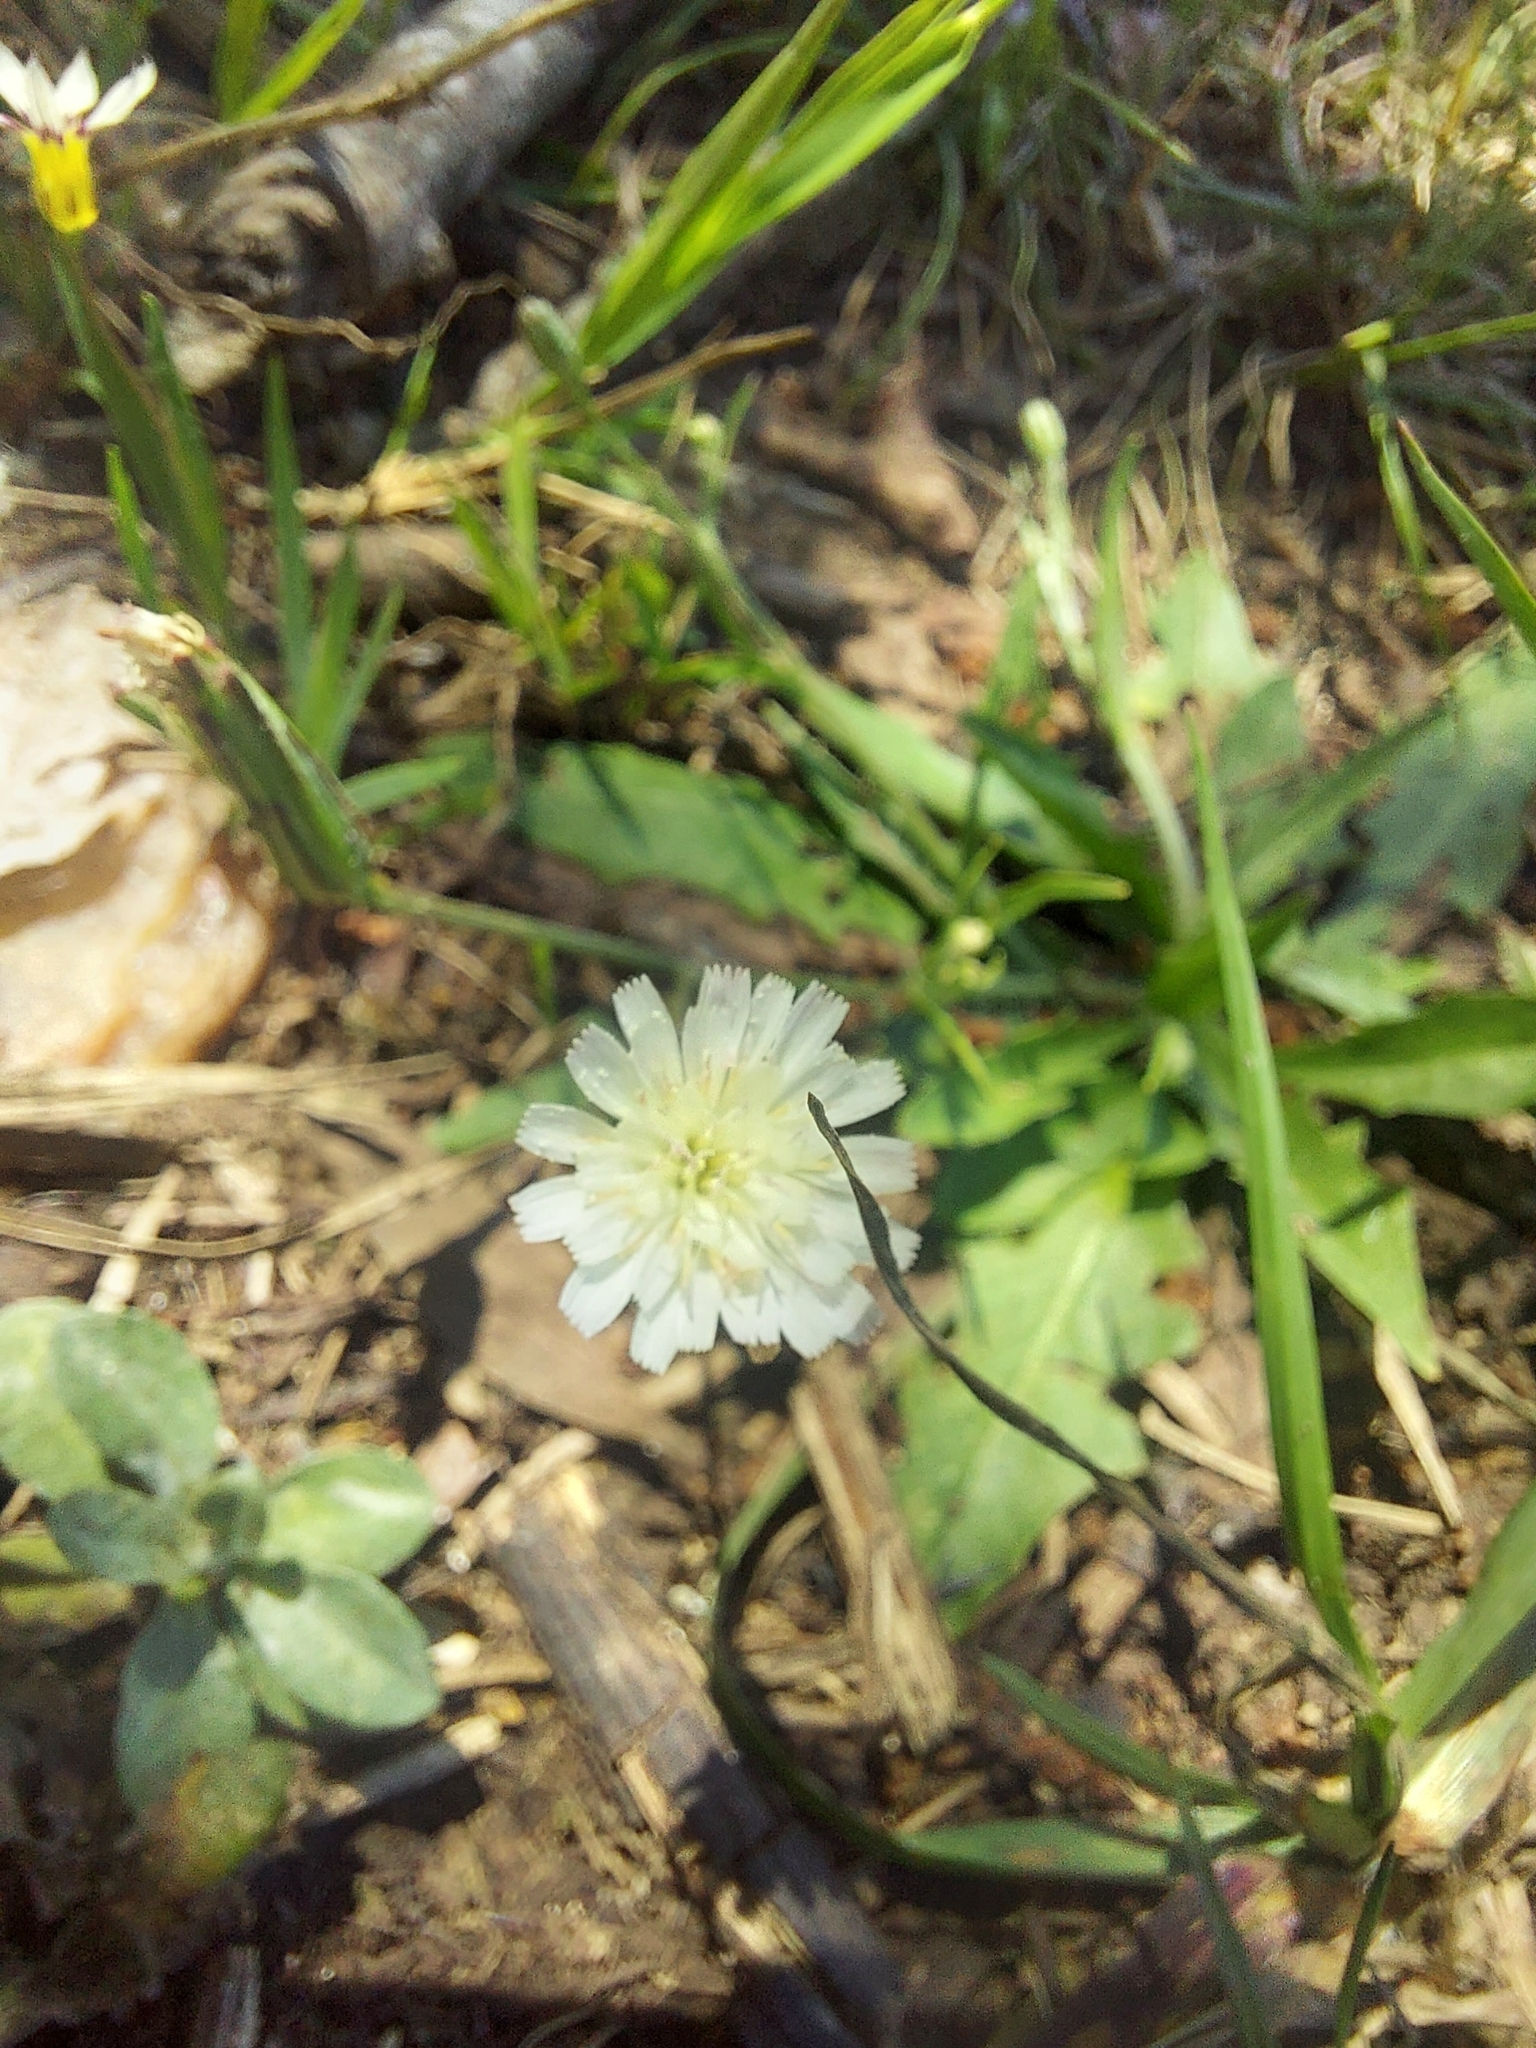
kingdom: Plantae
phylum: Tracheophyta
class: Magnoliopsida
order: Asterales
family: Asteraceae
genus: Hypochaeris
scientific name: Hypochaeris albiflora
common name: White flatweed
